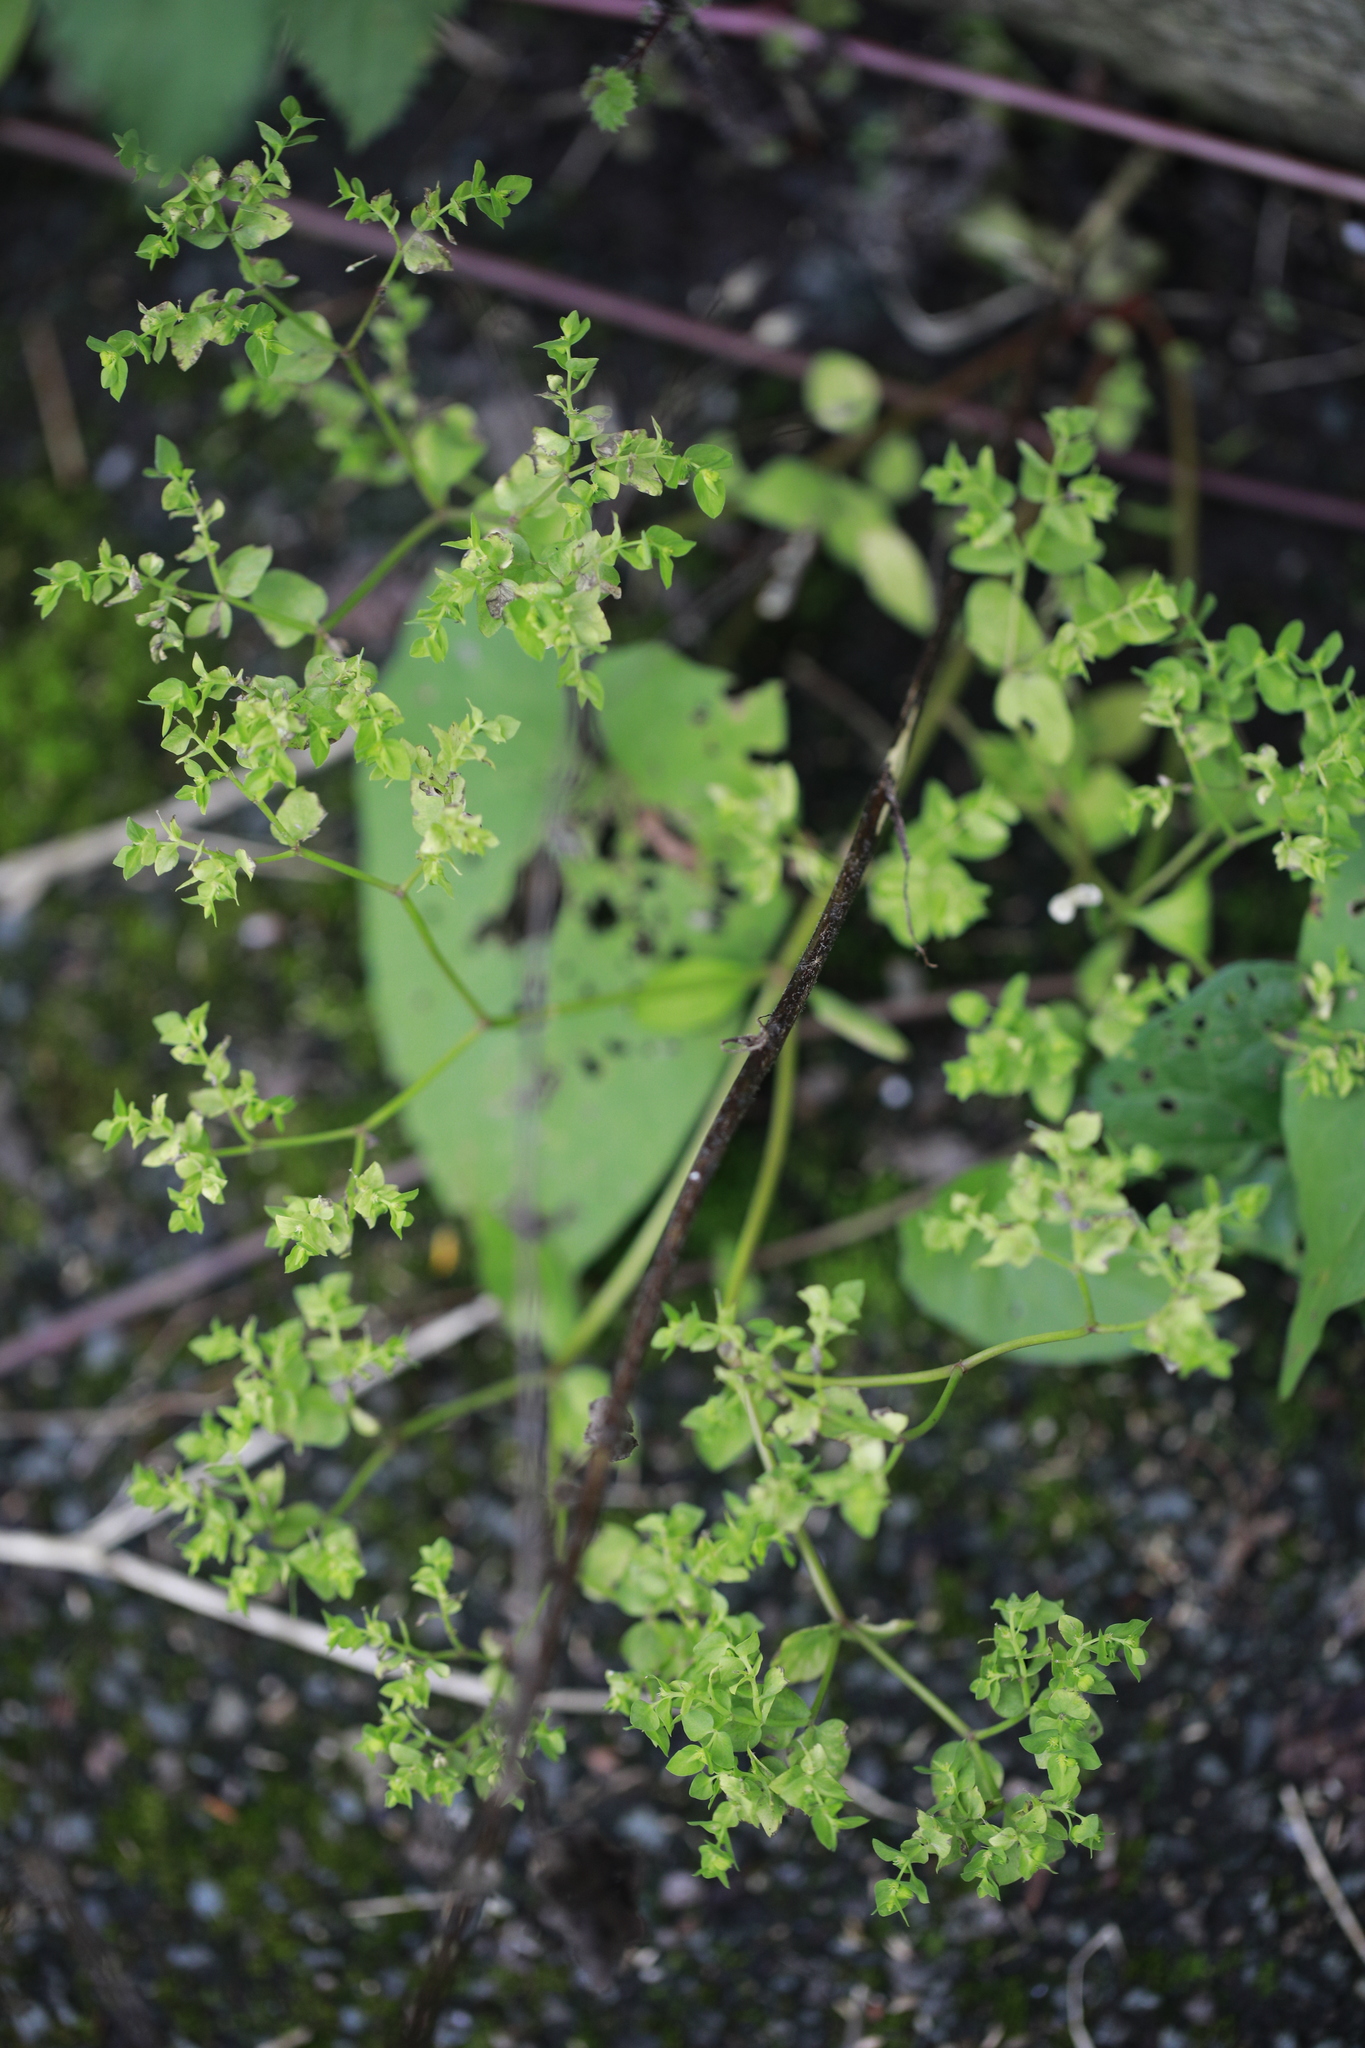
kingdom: Plantae
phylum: Tracheophyta
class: Magnoliopsida
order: Malpighiales
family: Euphorbiaceae
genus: Euphorbia
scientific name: Euphorbia peplus
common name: Petty spurge
